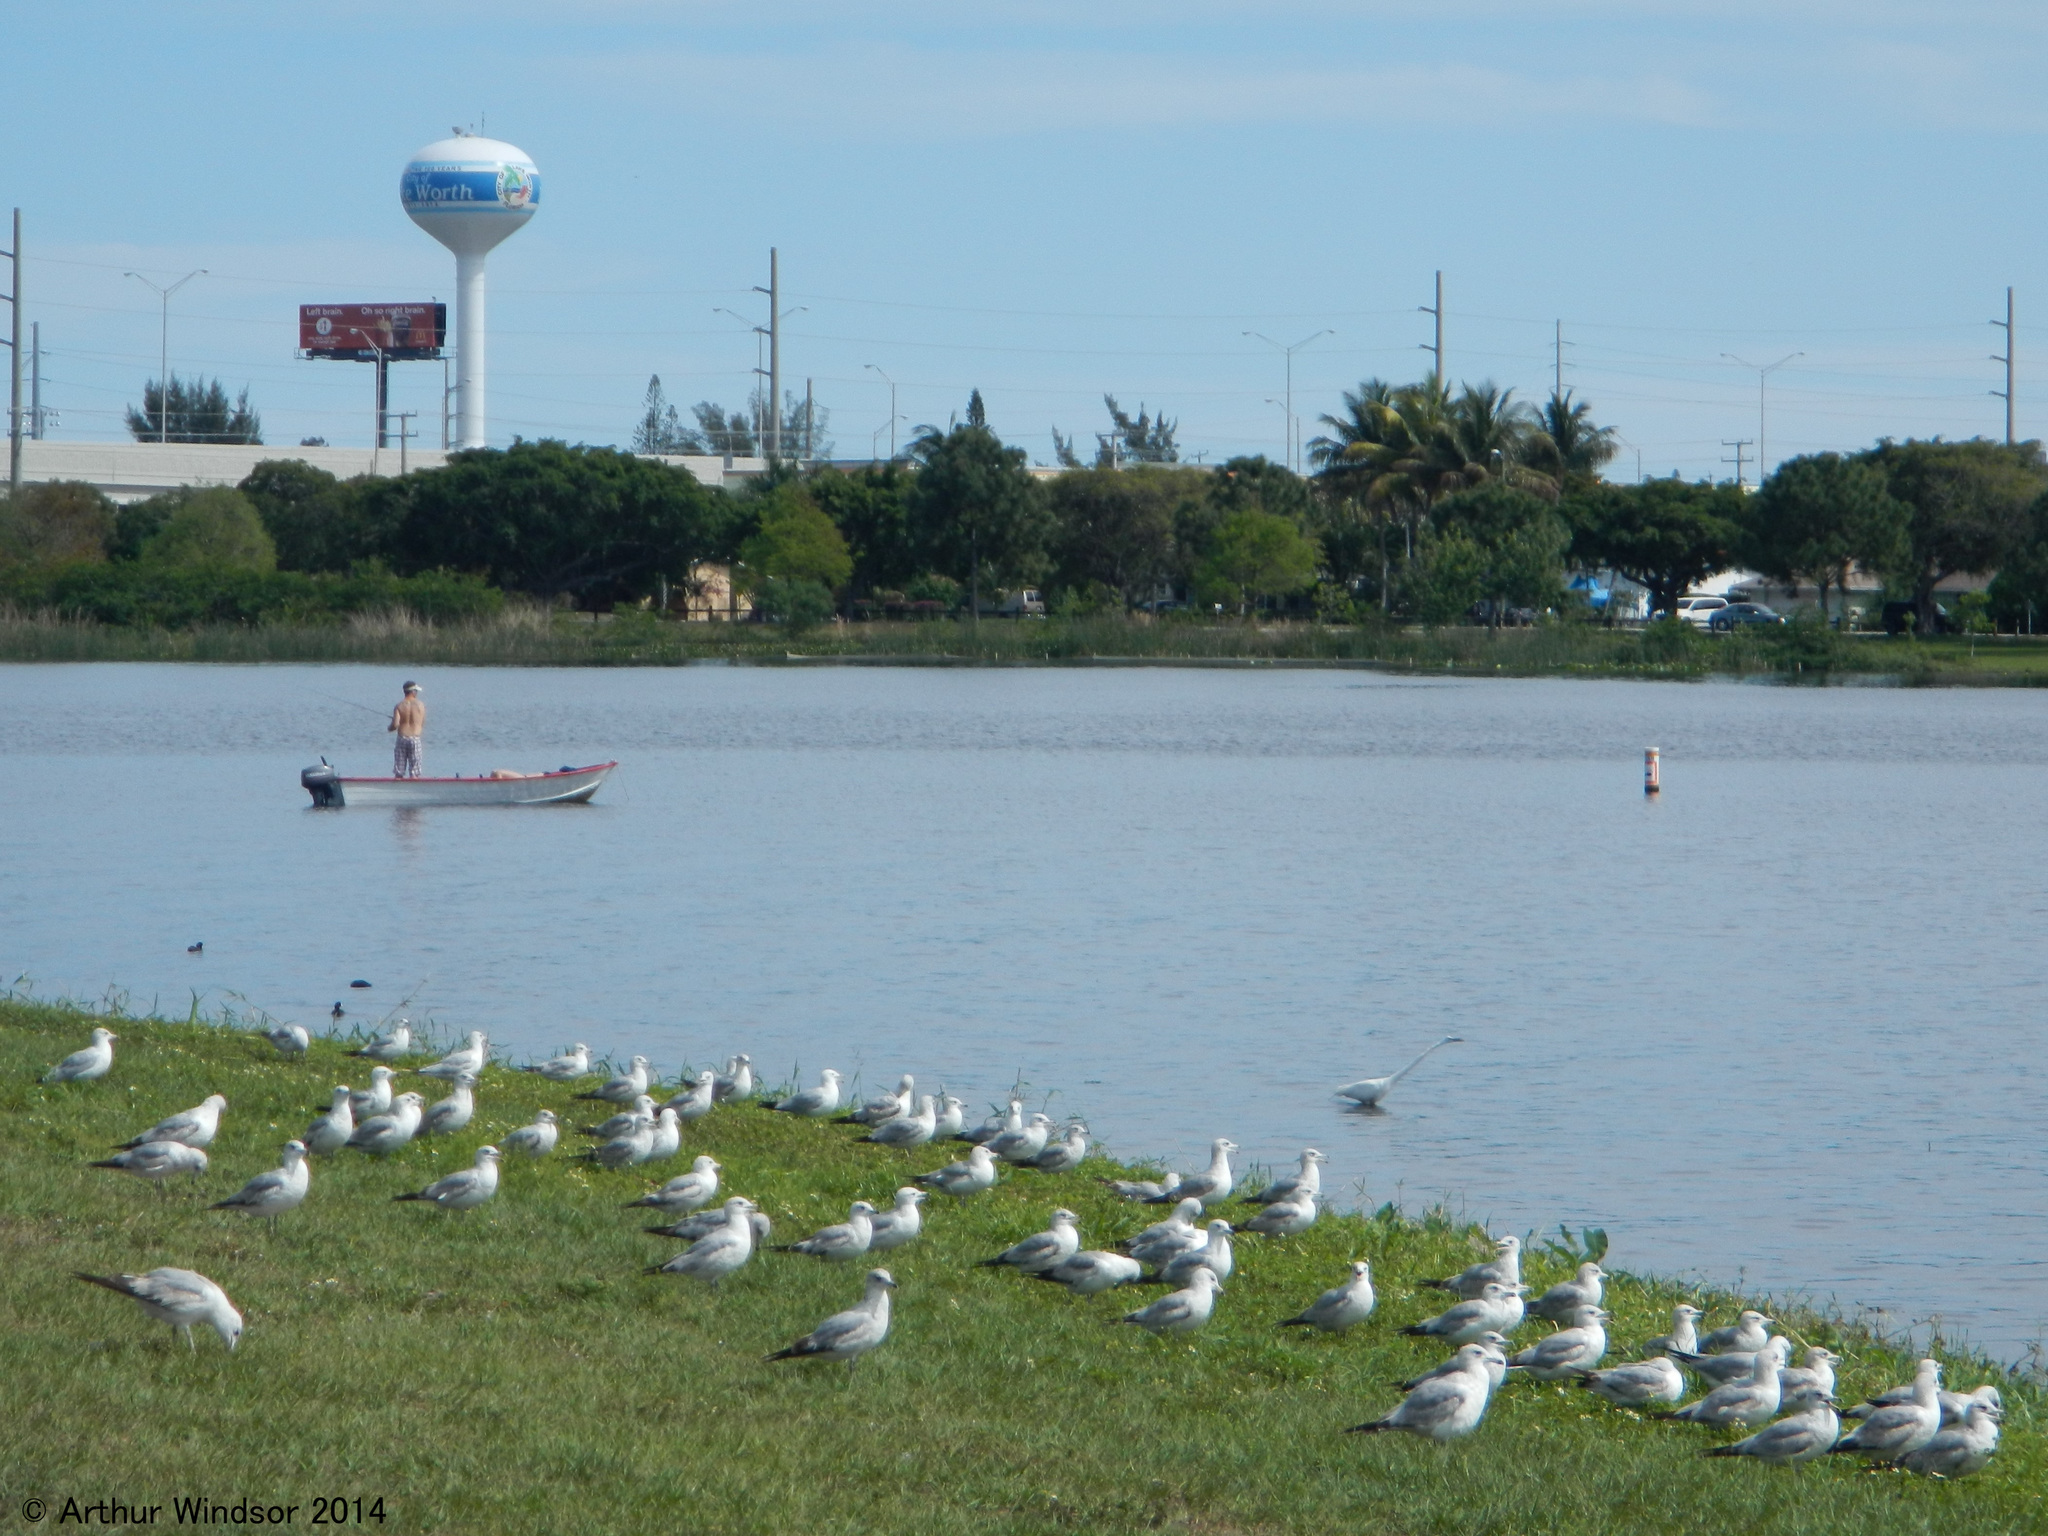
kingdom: Animalia
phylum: Chordata
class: Aves
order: Charadriiformes
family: Laridae
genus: Larus
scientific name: Larus delawarensis
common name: Ring-billed gull
